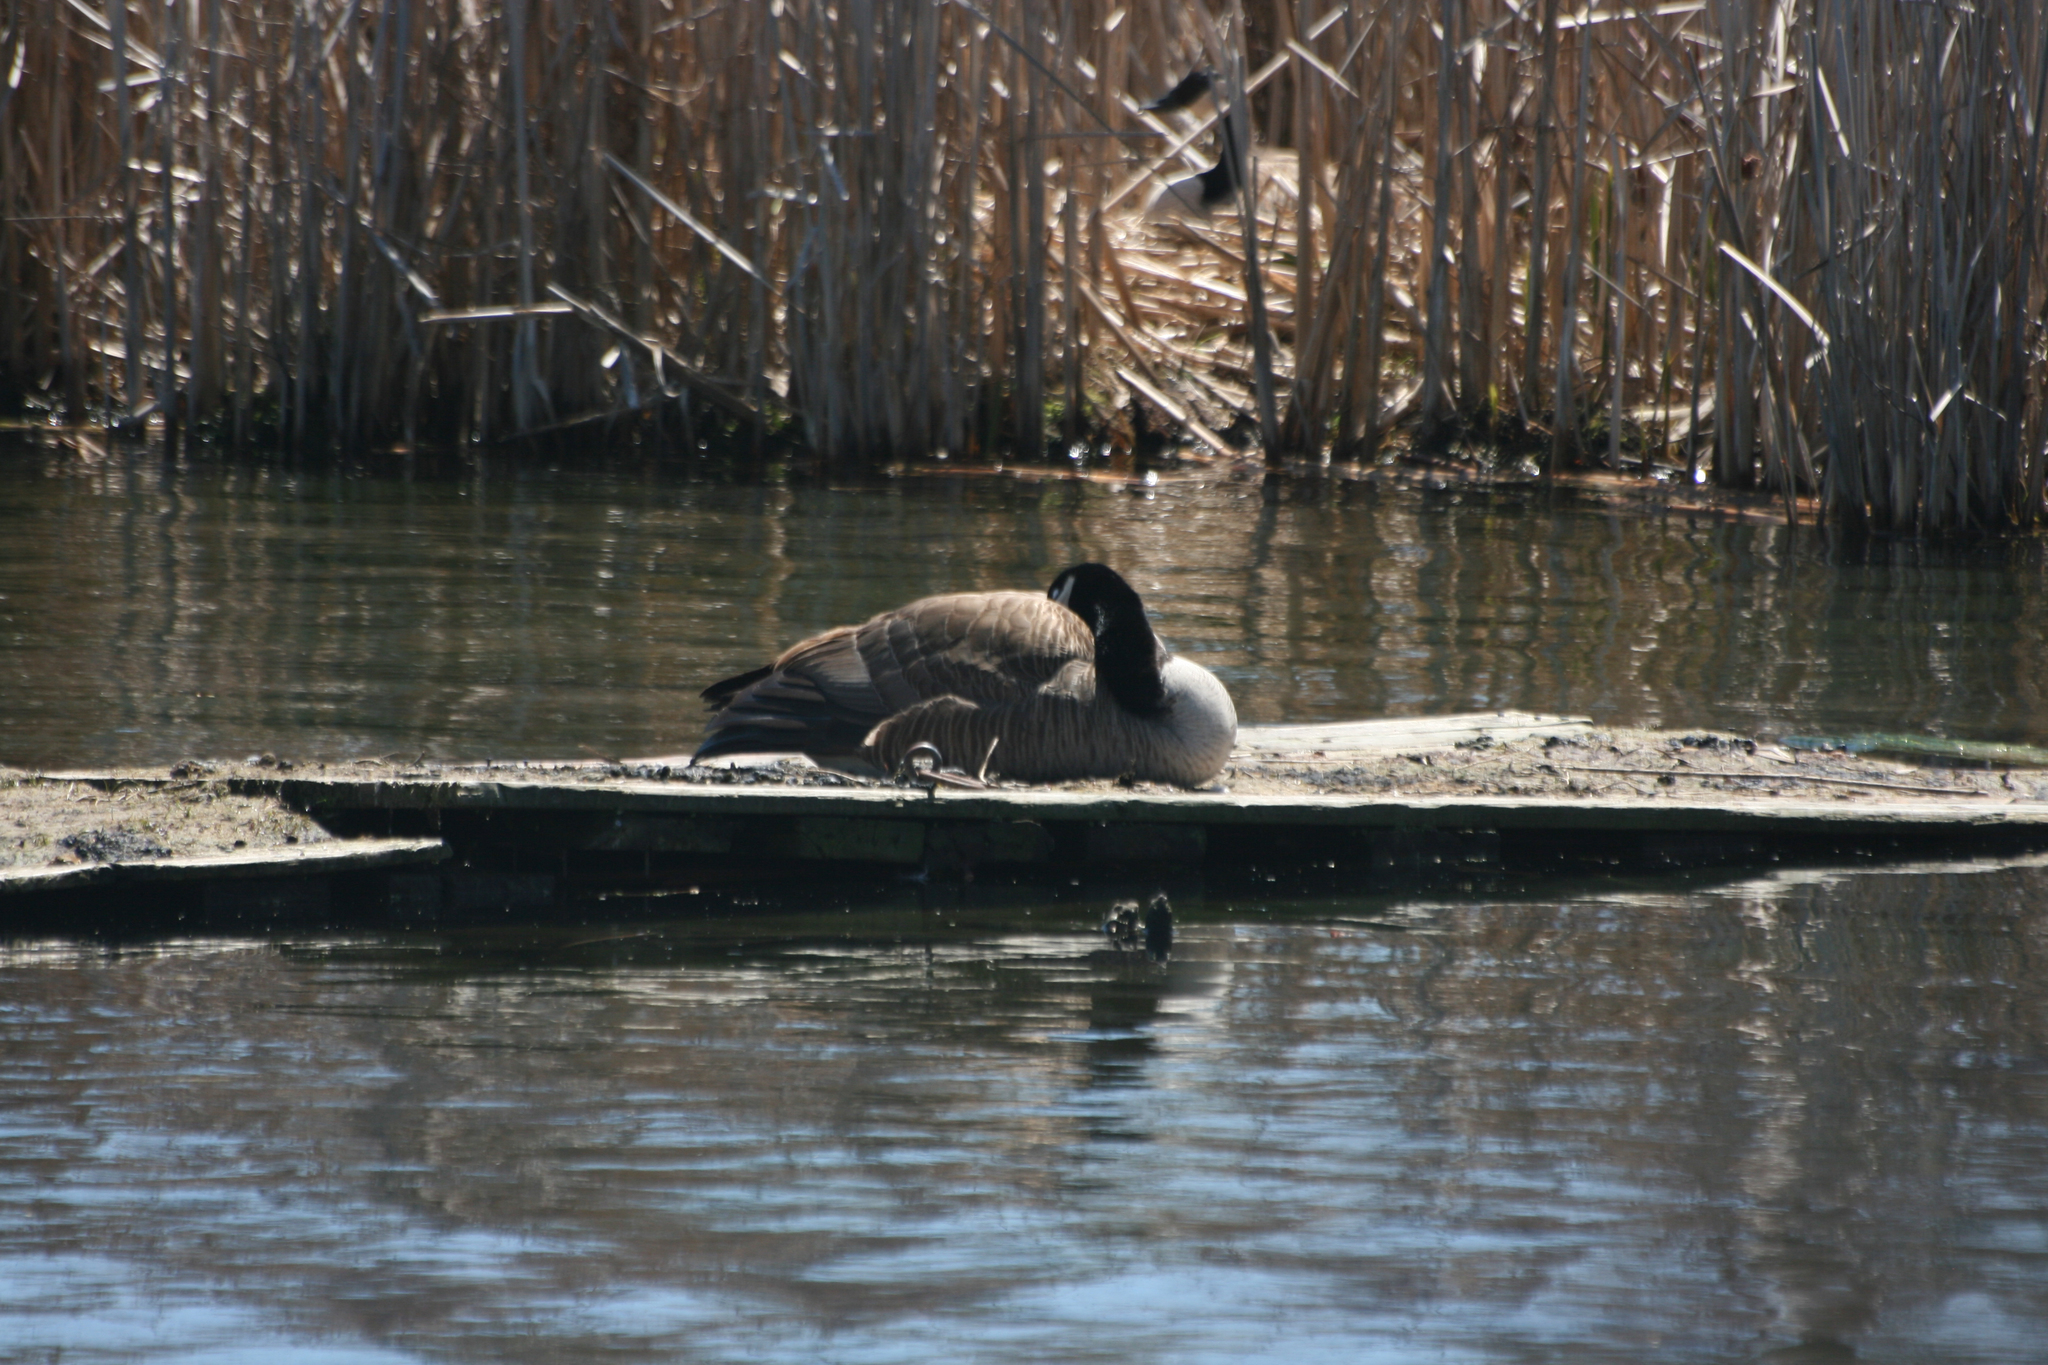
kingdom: Animalia
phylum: Chordata
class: Aves
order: Anseriformes
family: Anatidae
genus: Branta
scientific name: Branta canadensis
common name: Canada goose
